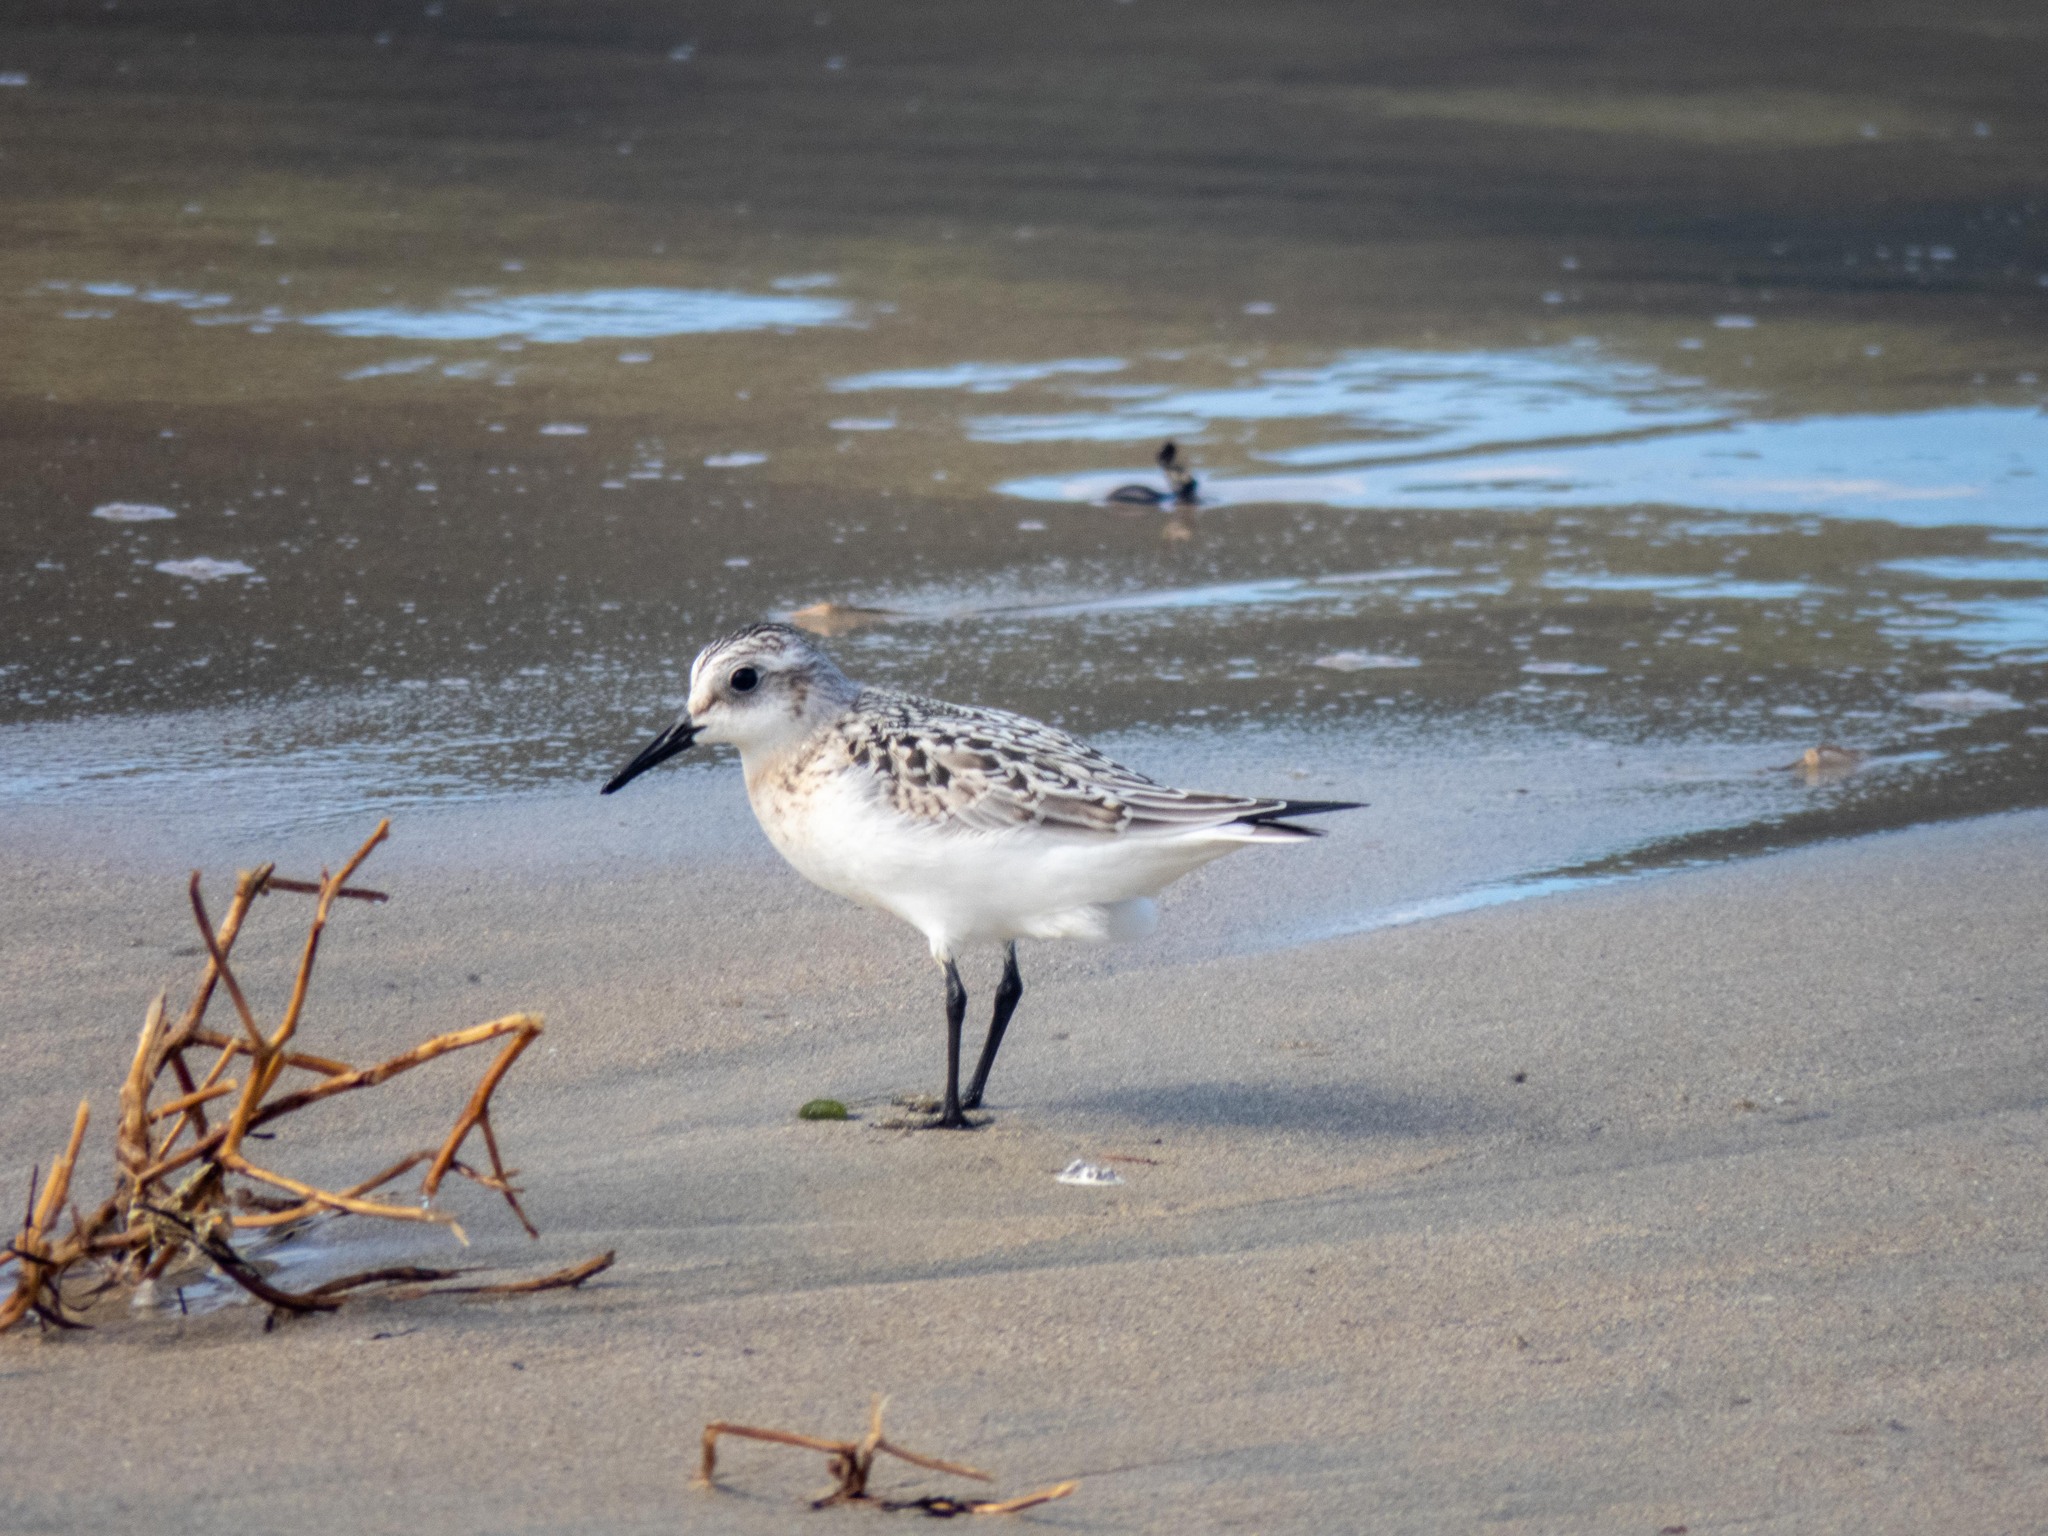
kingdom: Animalia
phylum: Chordata
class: Aves
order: Charadriiformes
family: Scolopacidae
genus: Calidris
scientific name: Calidris alba
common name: Sanderling
